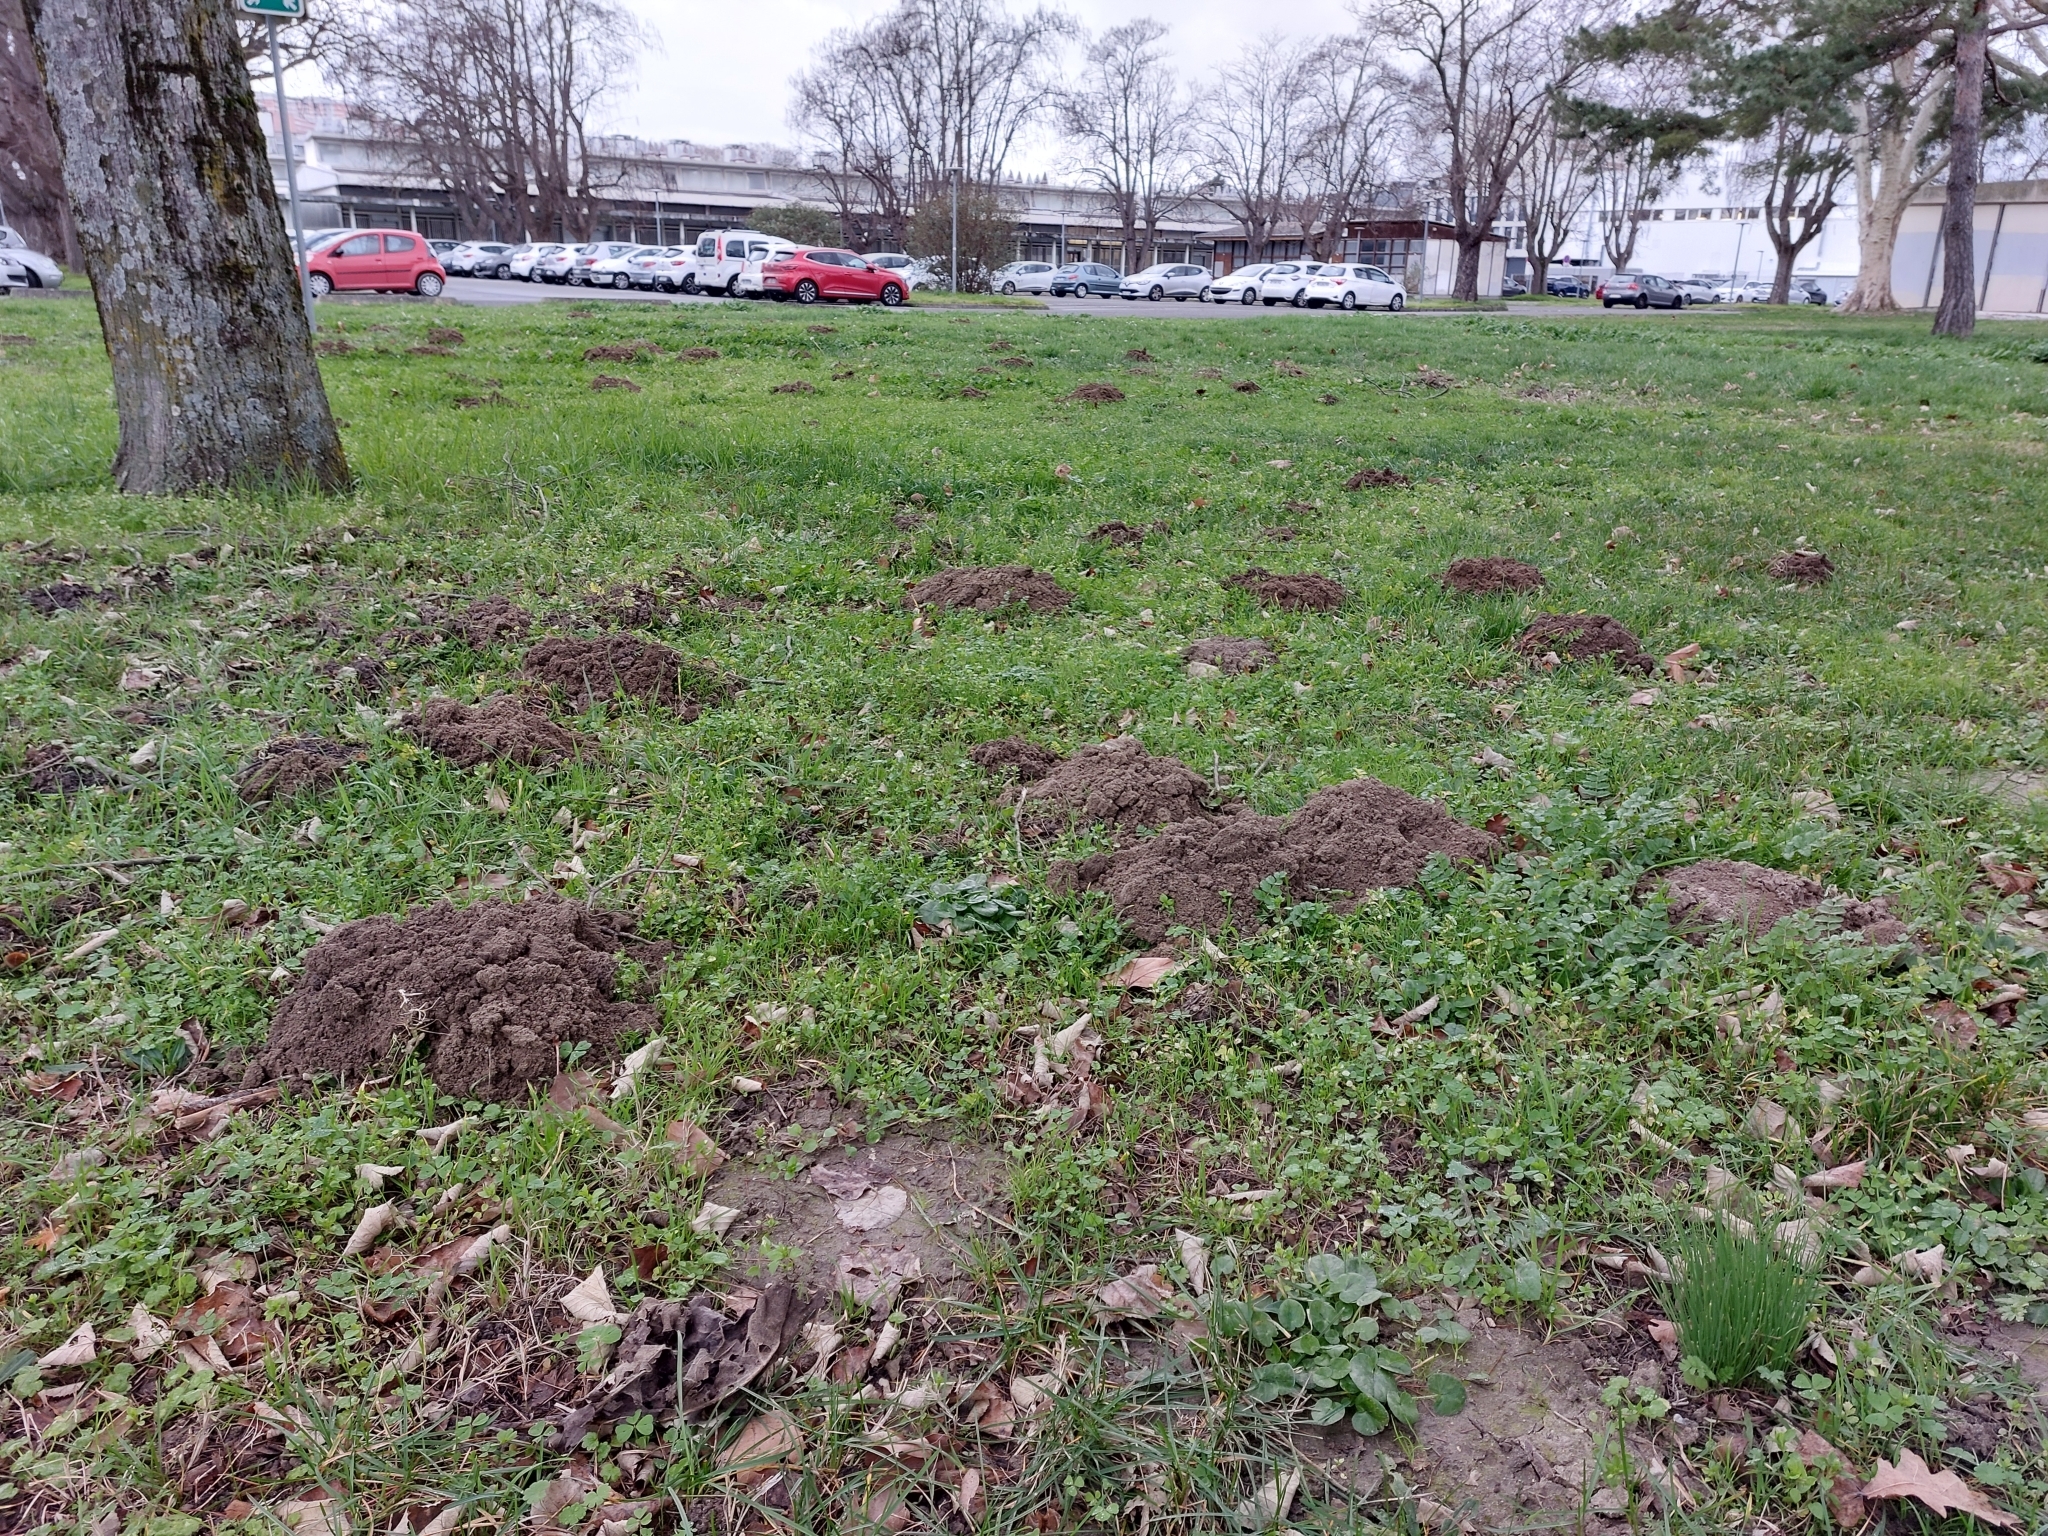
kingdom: Animalia
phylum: Chordata
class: Mammalia
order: Soricomorpha
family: Talpidae
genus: Talpa
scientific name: Talpa aquitania
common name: Aquitanian mole
